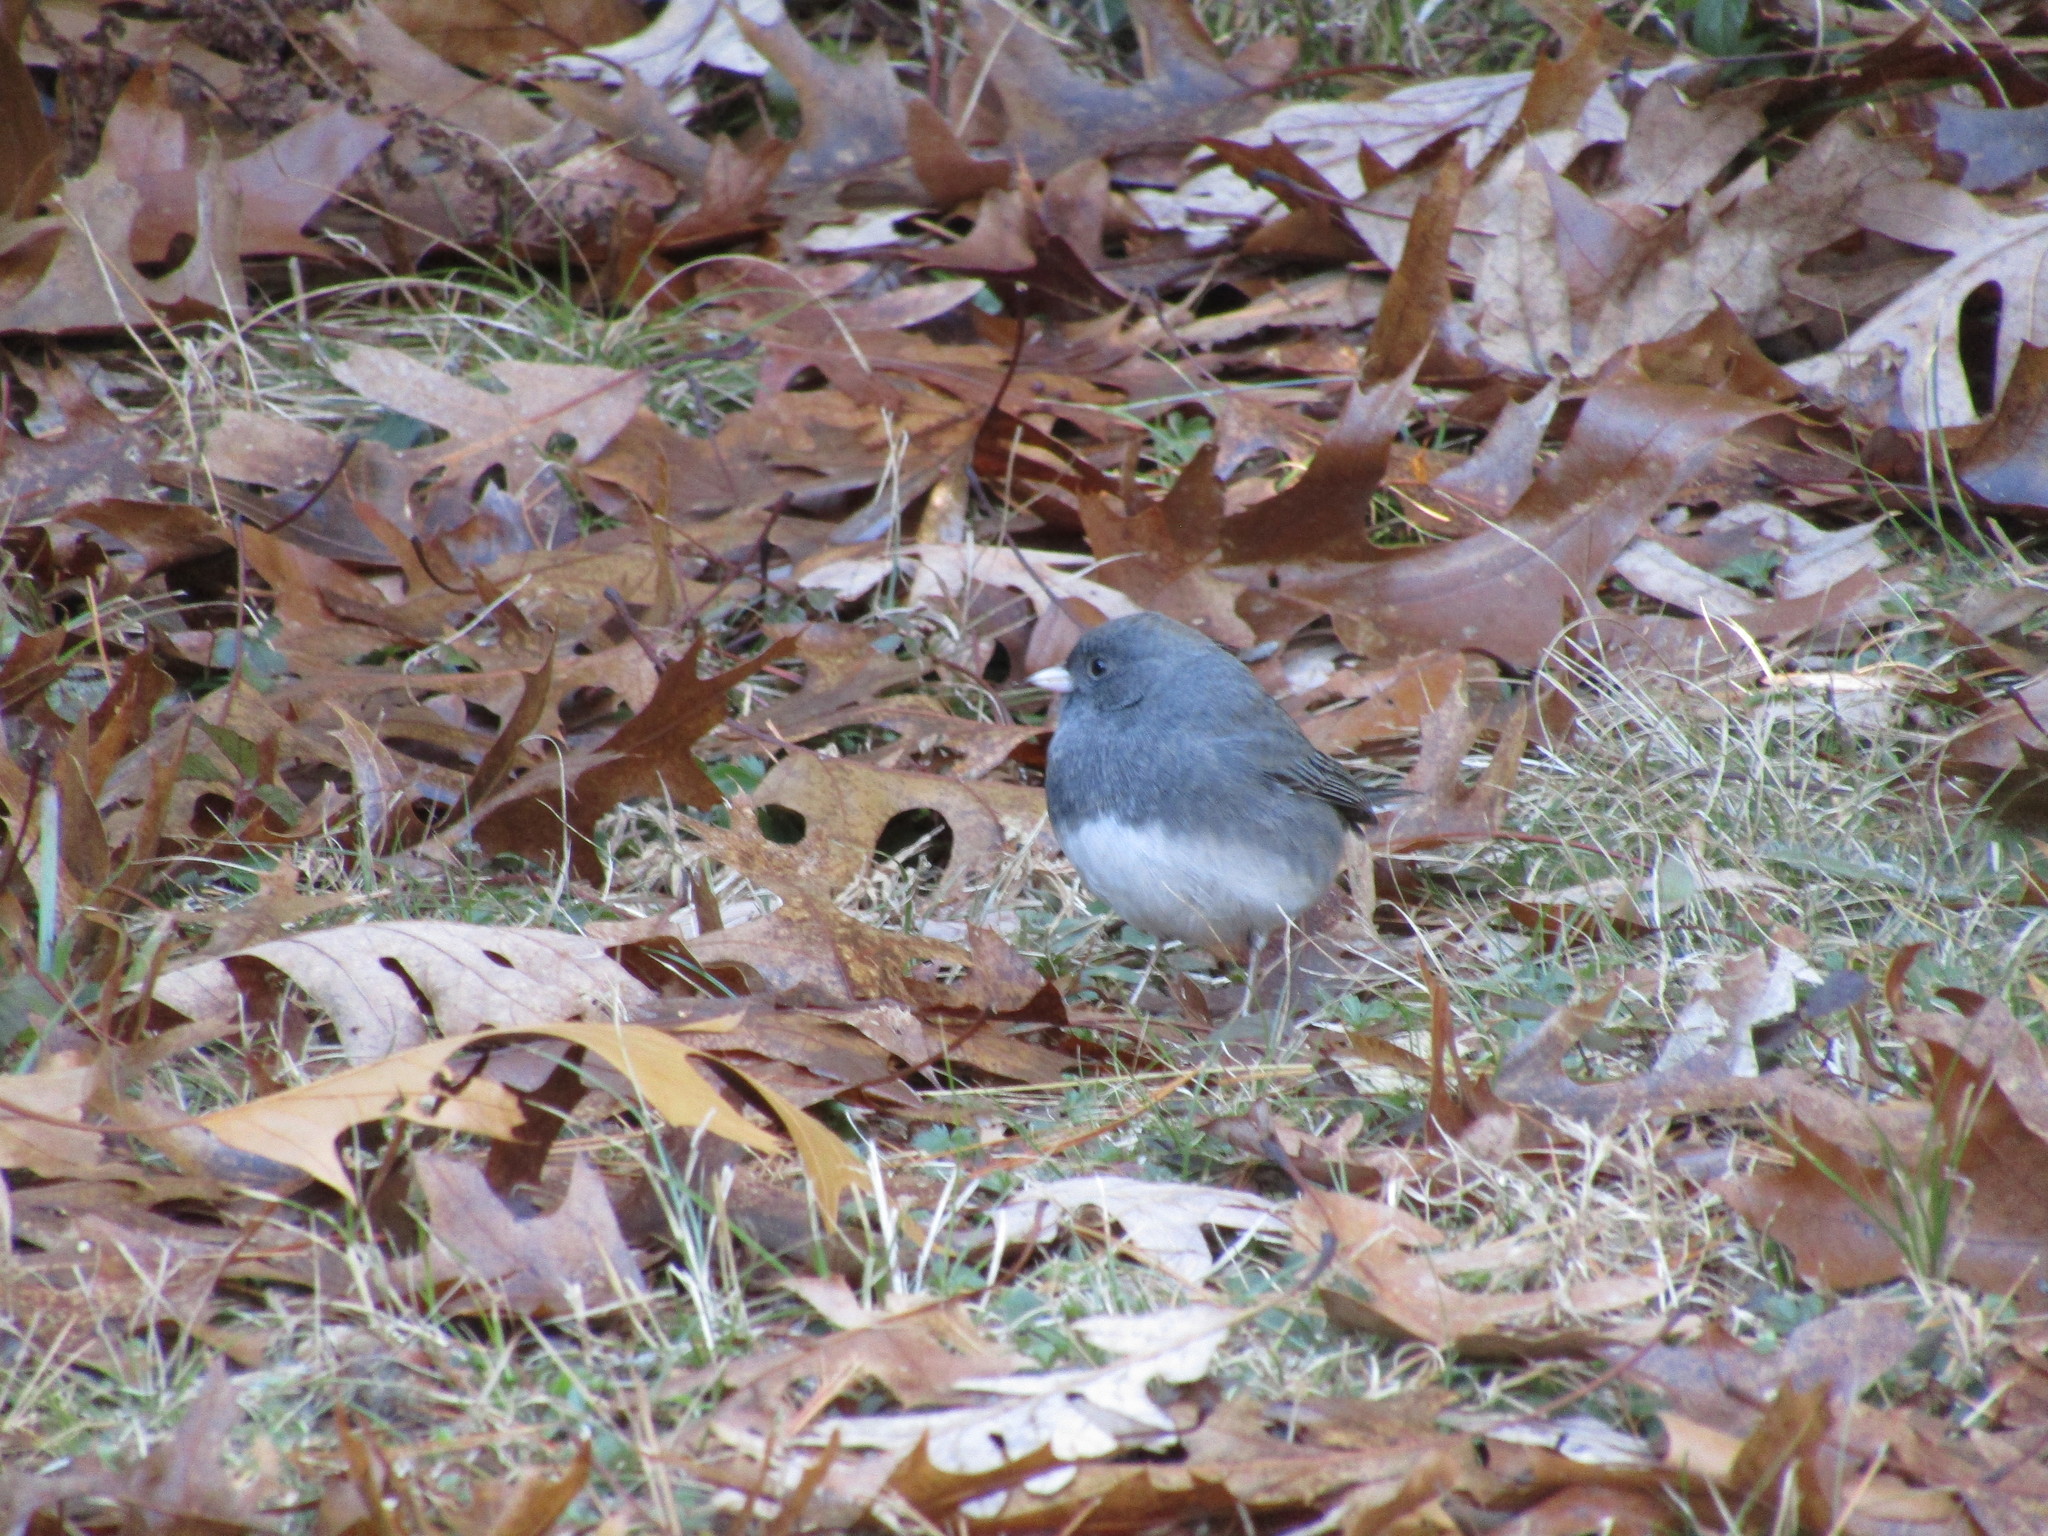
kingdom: Animalia
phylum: Chordata
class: Aves
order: Passeriformes
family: Passerellidae
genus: Junco
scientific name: Junco hyemalis
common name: Dark-eyed junco
